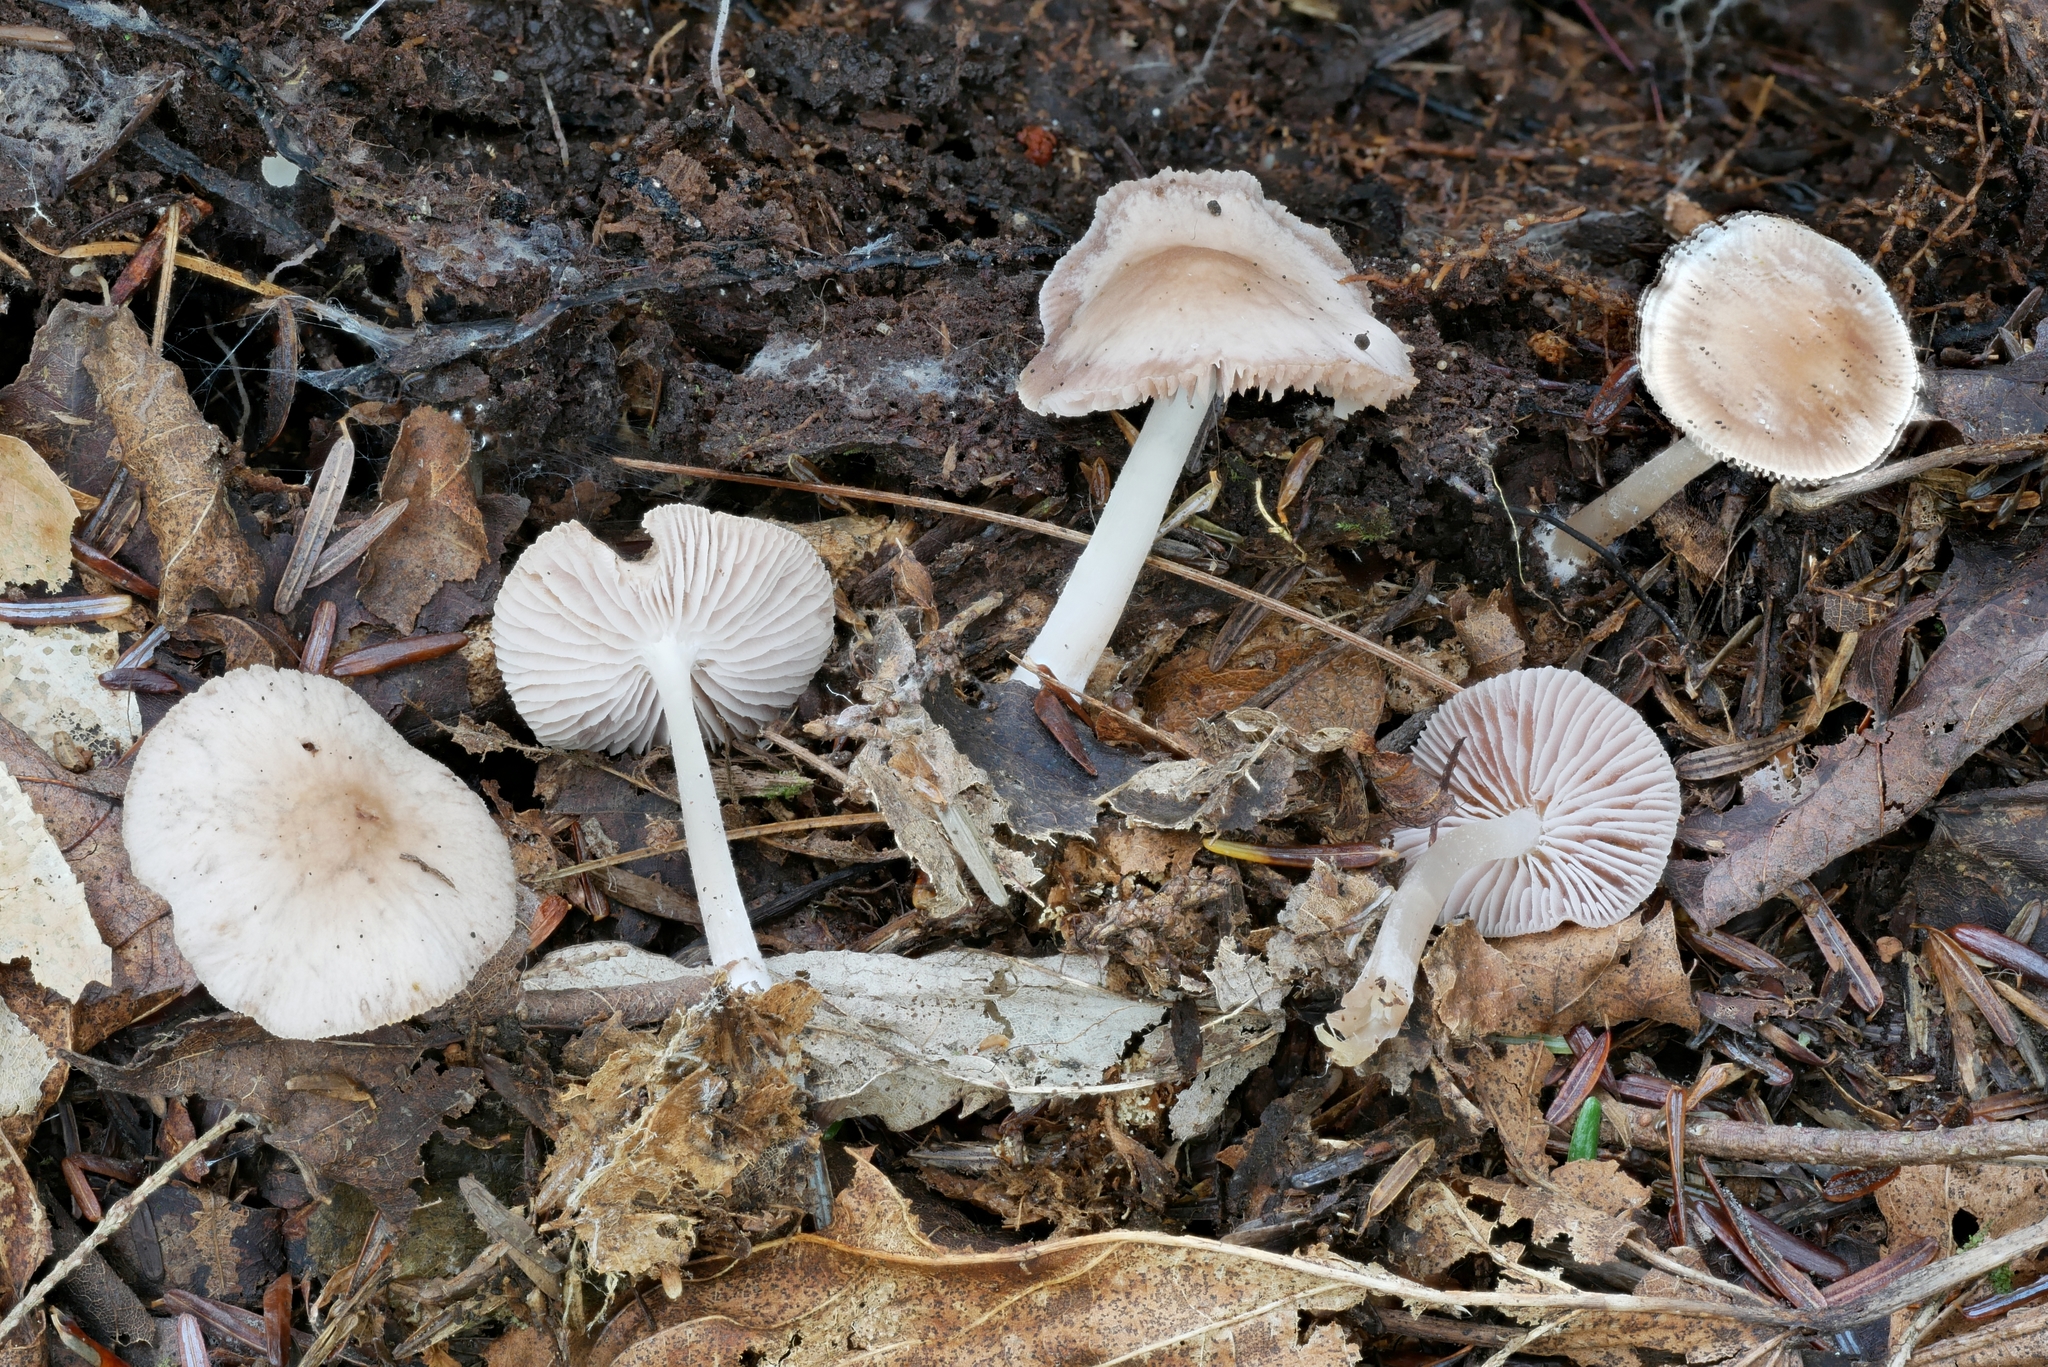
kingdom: Fungi
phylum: Basidiomycota
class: Agaricomycetes
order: Agaricales
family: Mycenaceae
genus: Mycena
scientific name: Mycena pura
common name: Lilac bonnet
